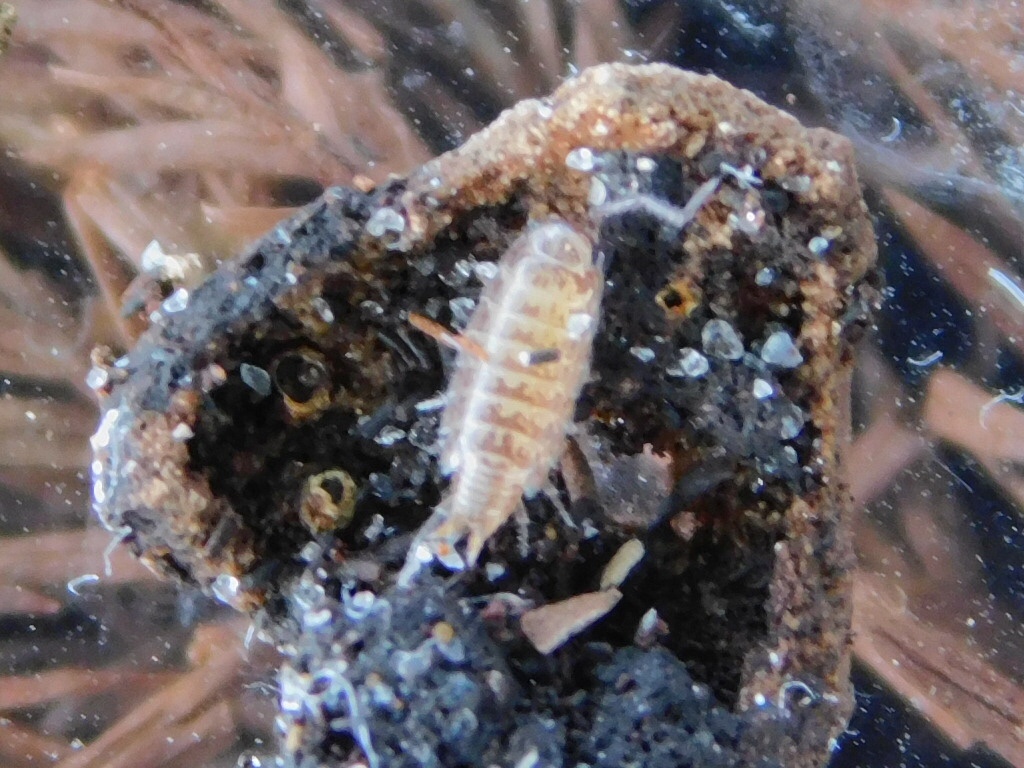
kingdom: Animalia
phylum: Arthropoda
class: Malacostraca
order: Isopoda
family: Philosciidae
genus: Atlantoscia
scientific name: Atlantoscia floridana
